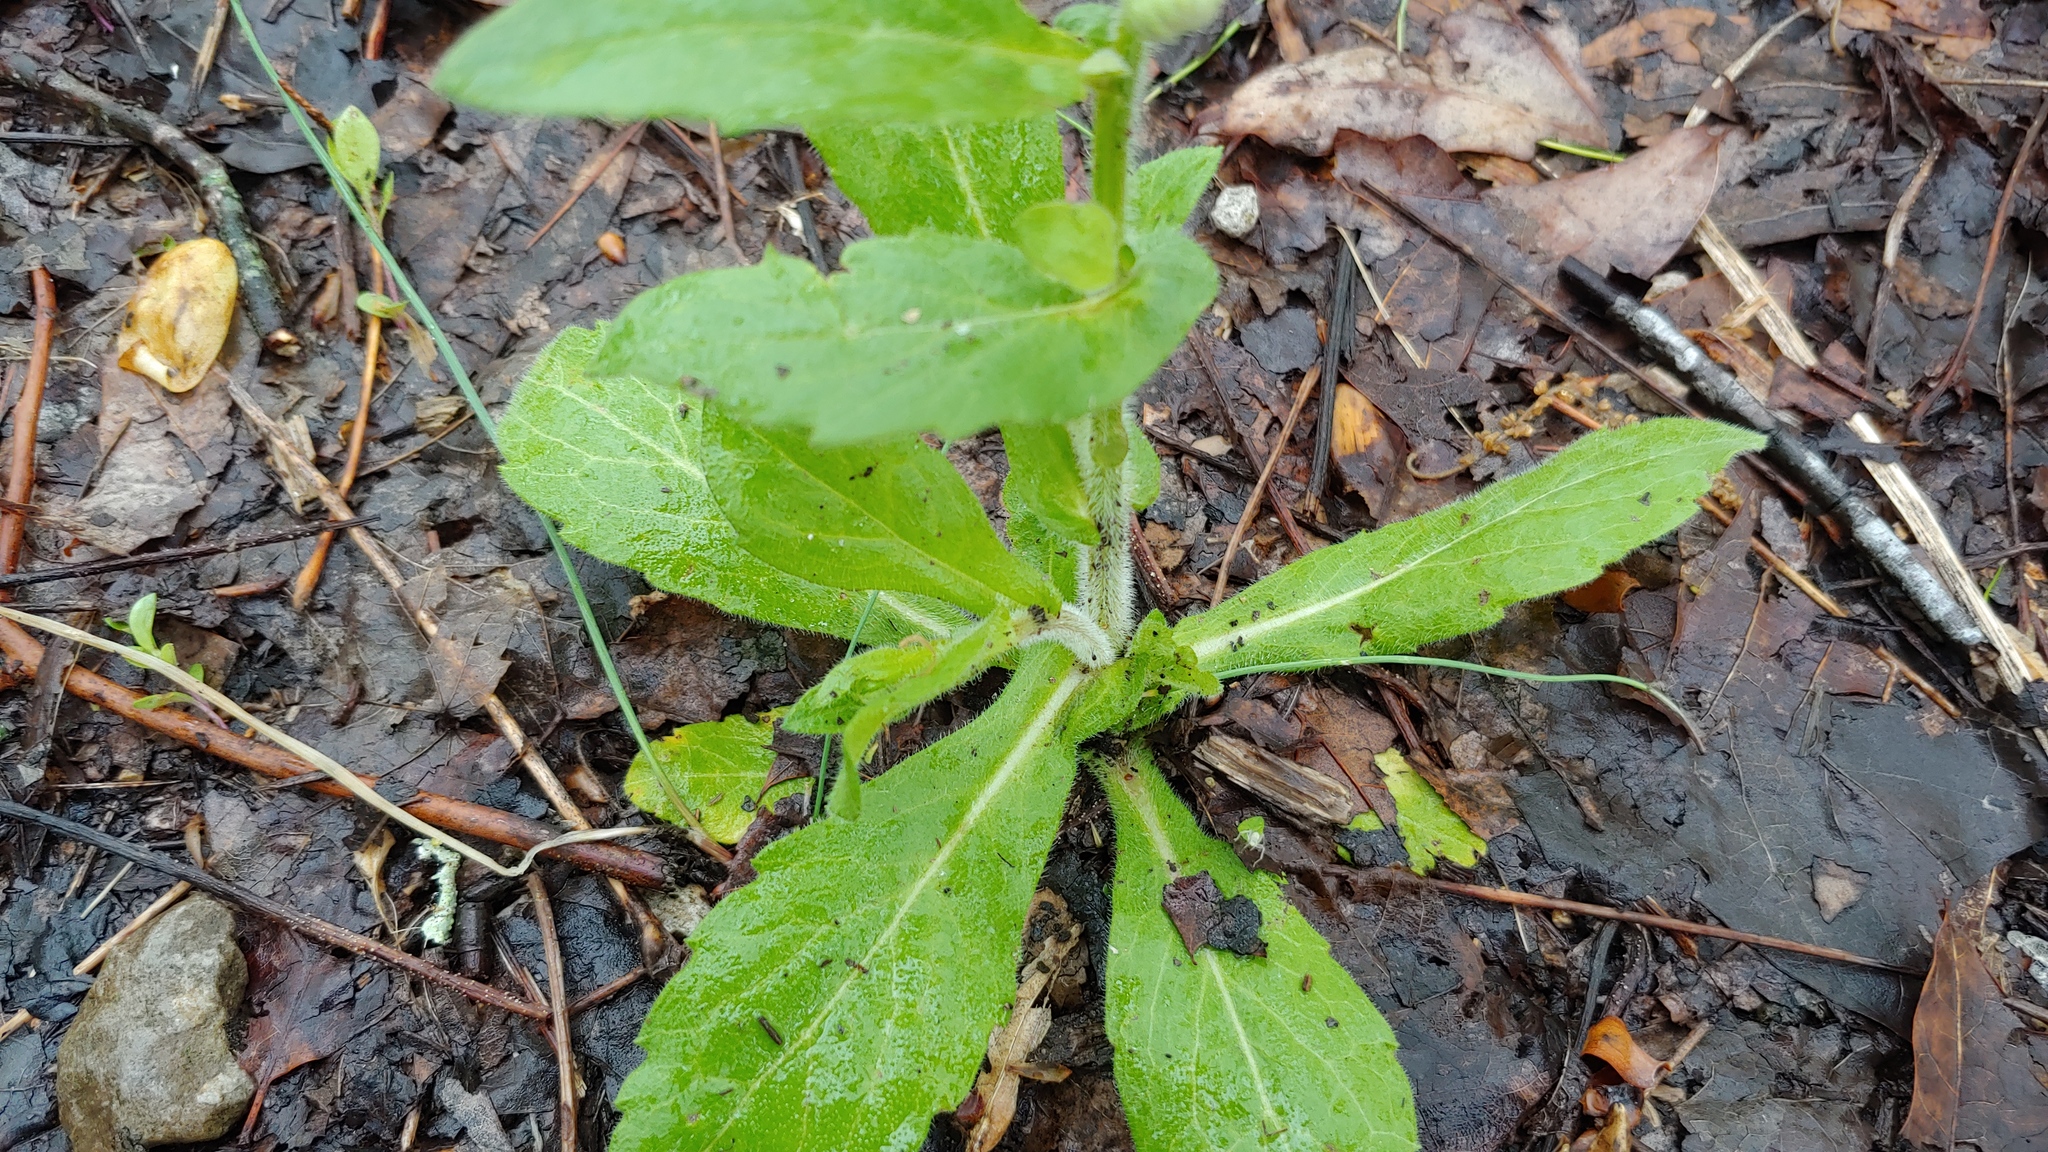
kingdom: Plantae
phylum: Tracheophyta
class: Magnoliopsida
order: Asterales
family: Asteraceae
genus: Erigeron
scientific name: Erigeron philadelphicus
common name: Robin's-plantain
